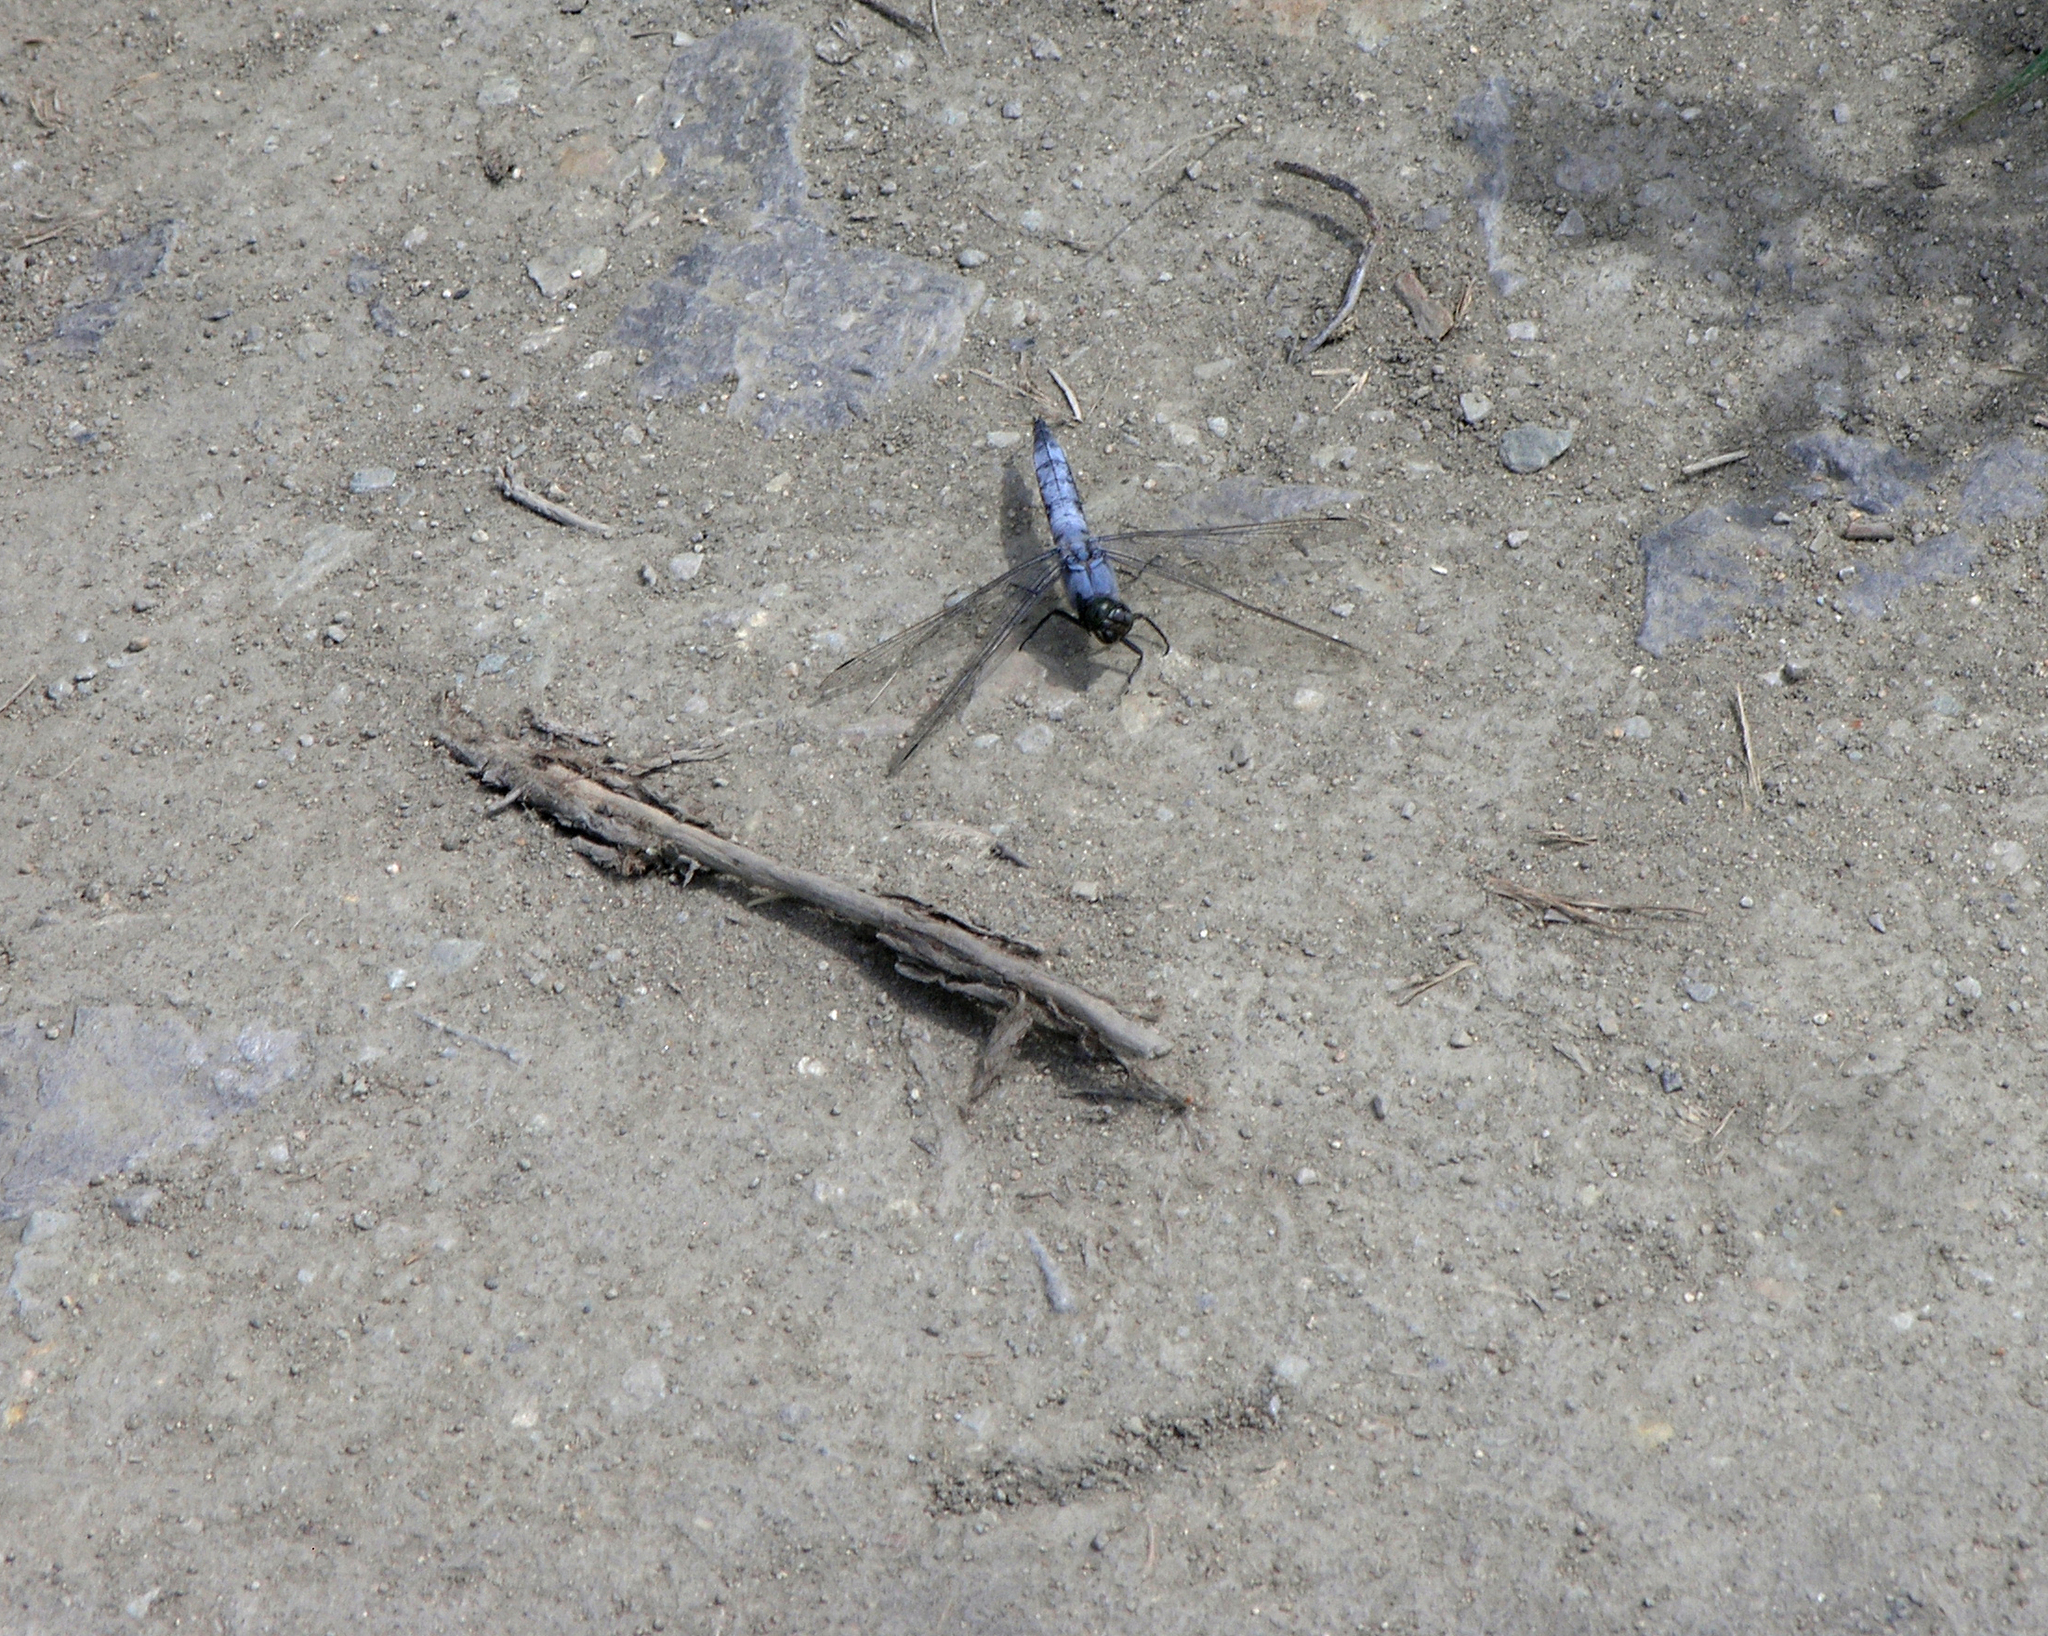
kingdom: Animalia
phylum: Arthropoda
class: Insecta
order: Odonata
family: Libellulidae
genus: Orthetrum
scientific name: Orthetrum cancellatum
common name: Black-tailed skimmer
